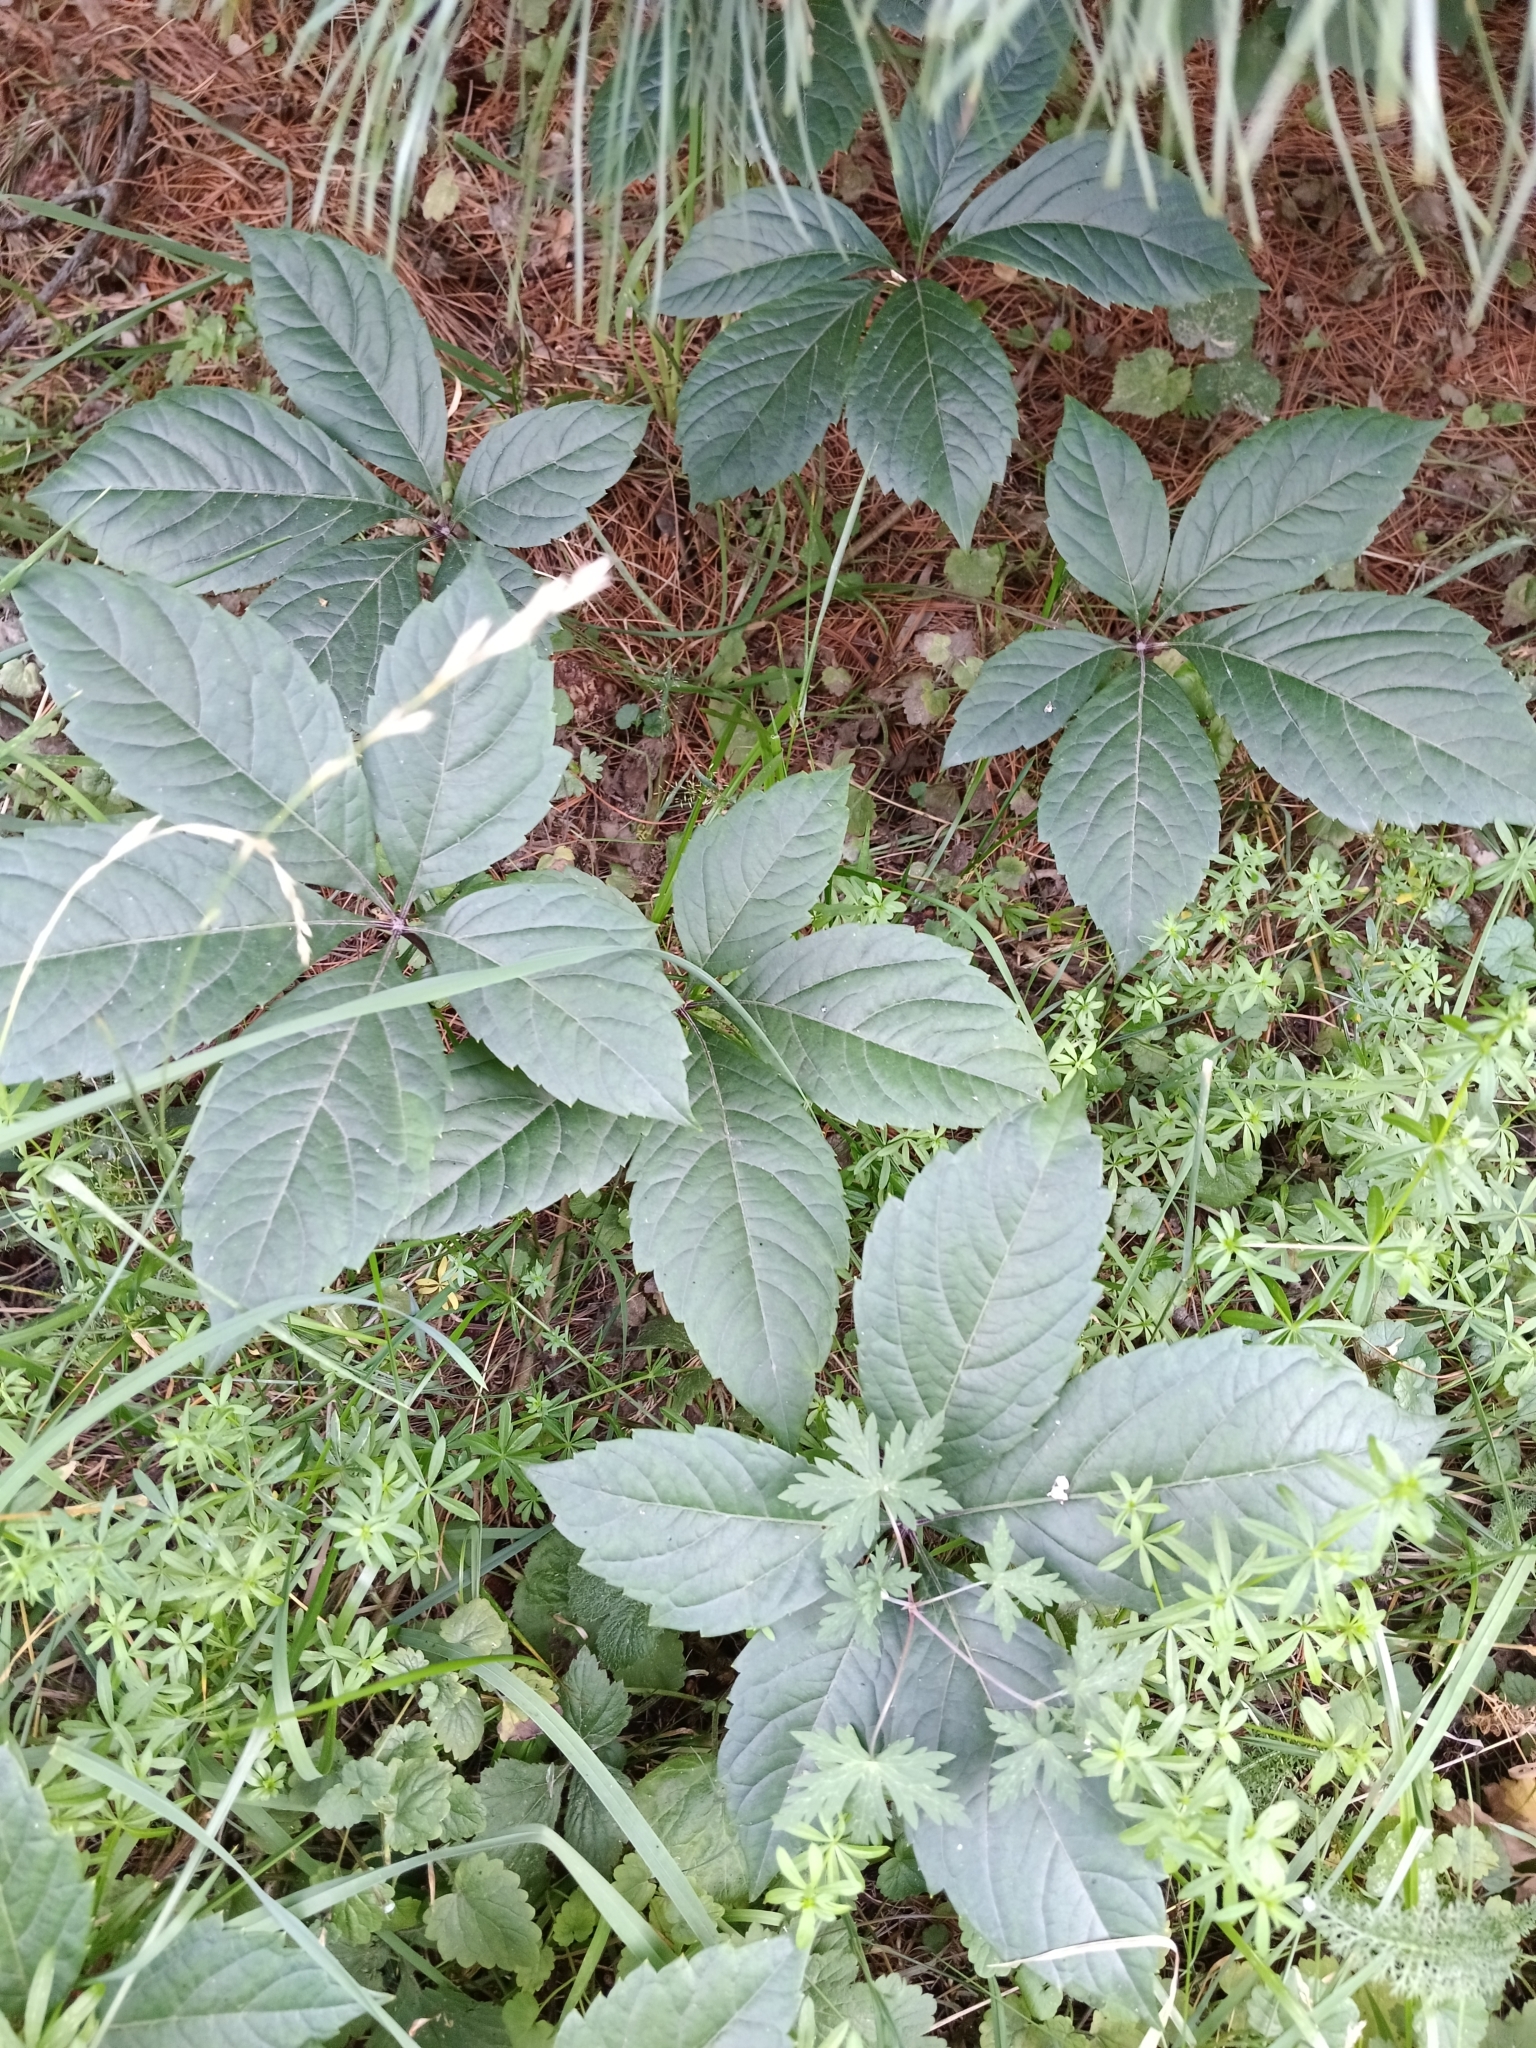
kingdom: Plantae
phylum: Tracheophyta
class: Magnoliopsida
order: Vitales
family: Vitaceae
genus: Parthenocissus
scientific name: Parthenocissus inserta
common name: False virginia-creeper
